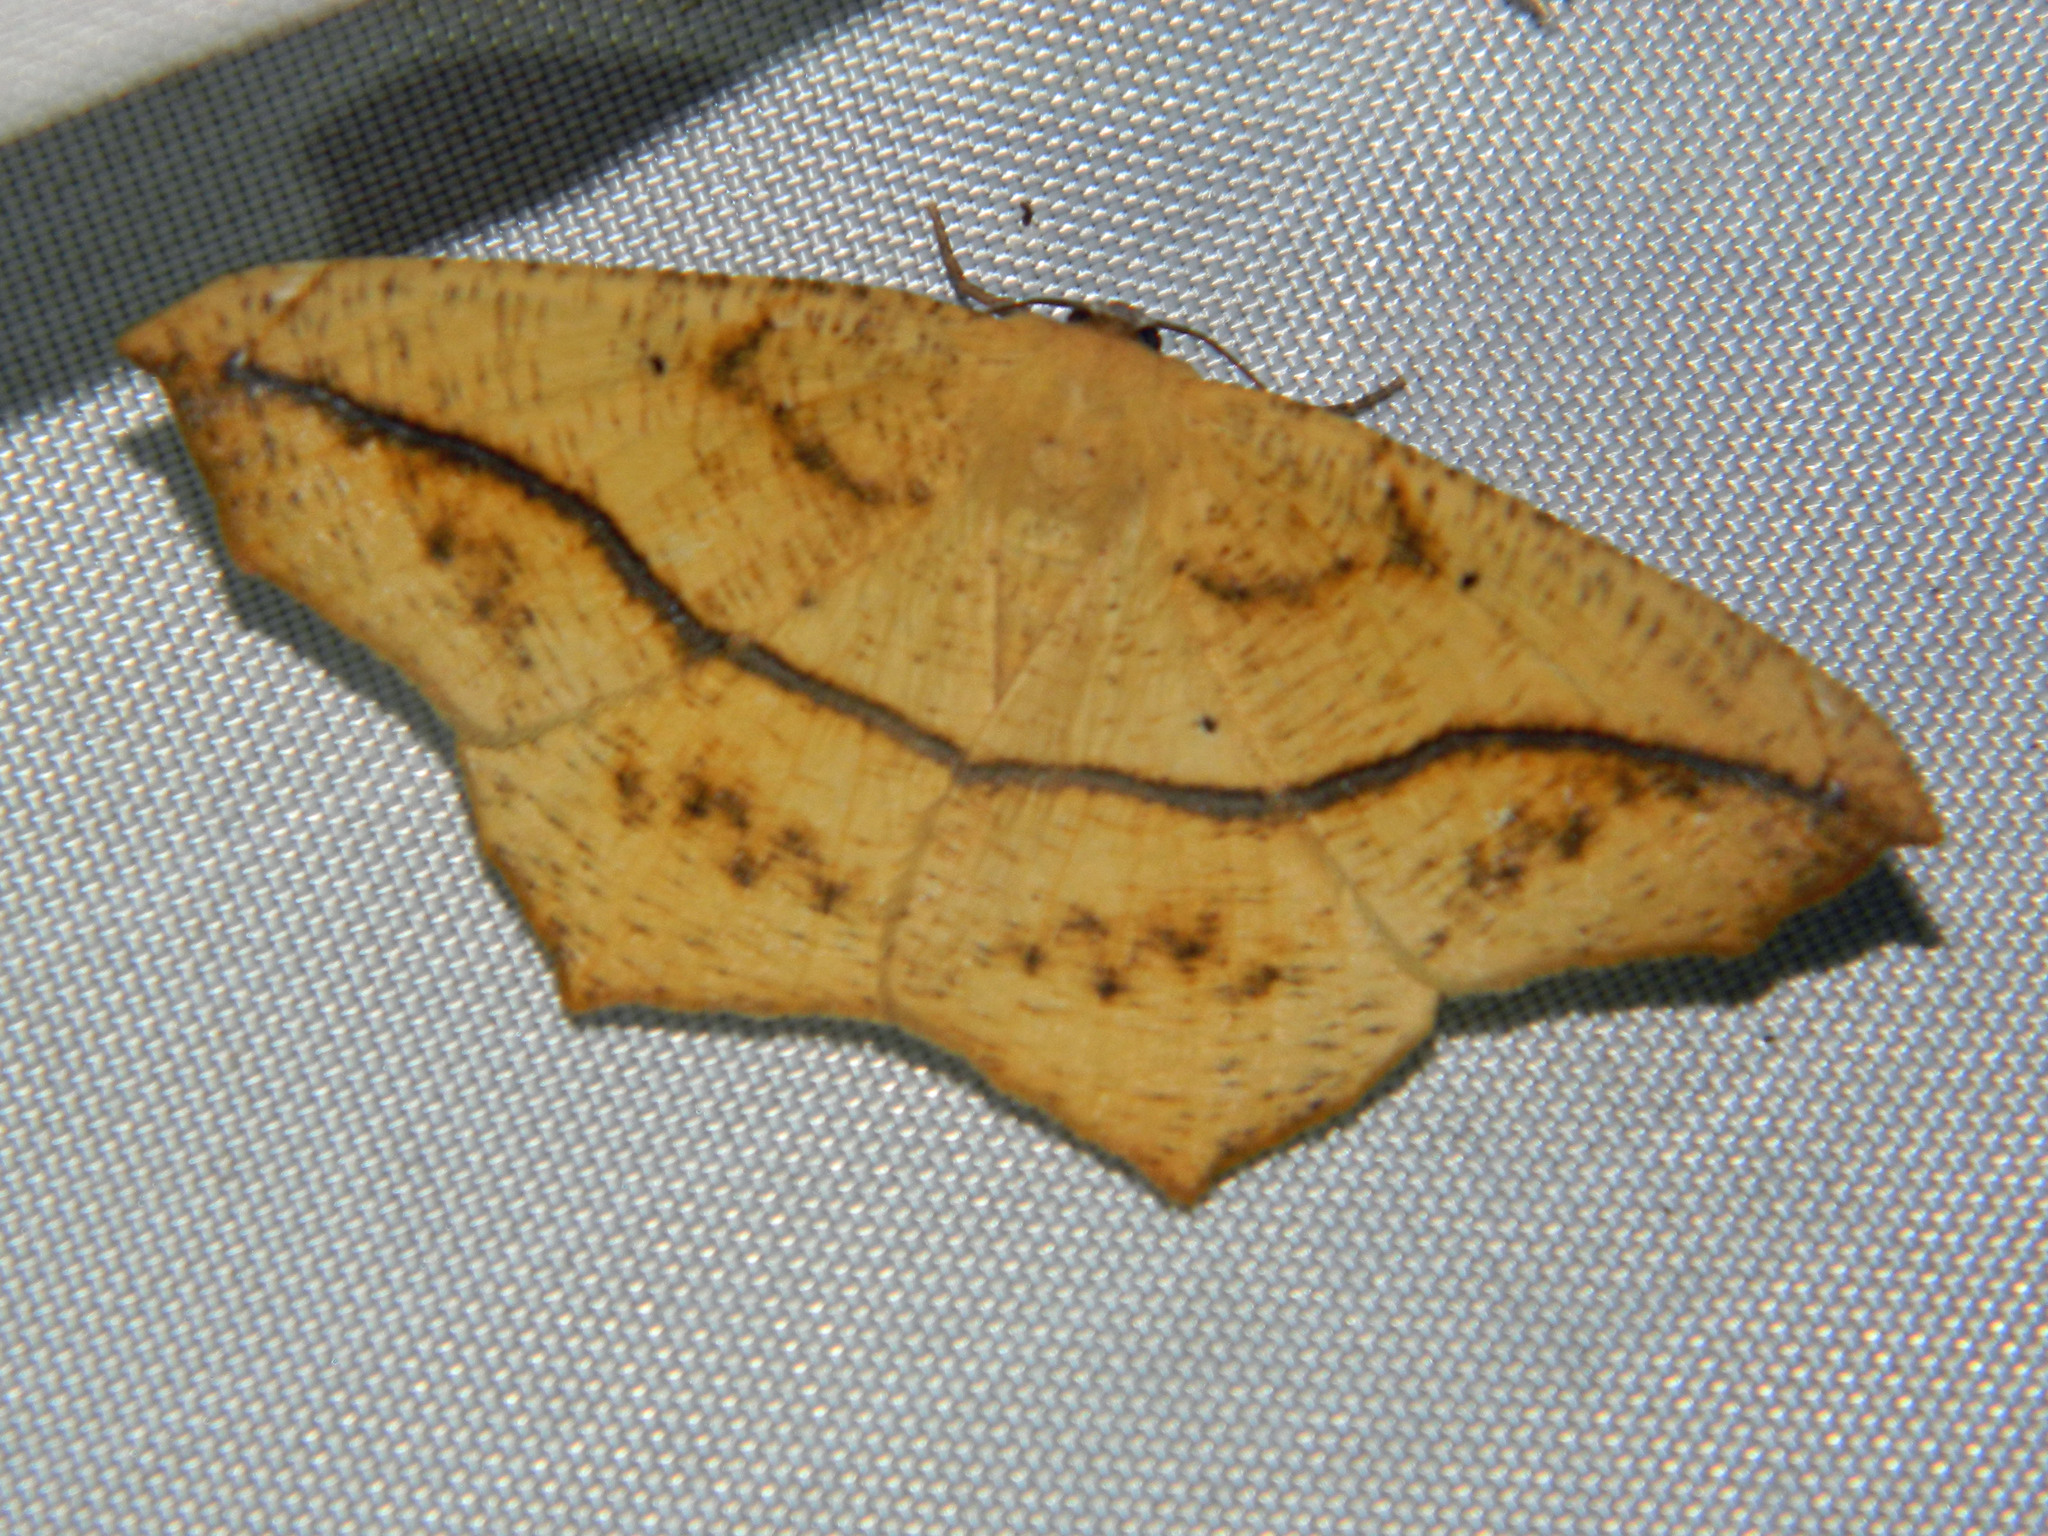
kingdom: Animalia
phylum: Arthropoda
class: Insecta
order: Lepidoptera
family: Geometridae
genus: Prochoerodes
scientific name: Prochoerodes lineola
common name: Large maple spanworm
